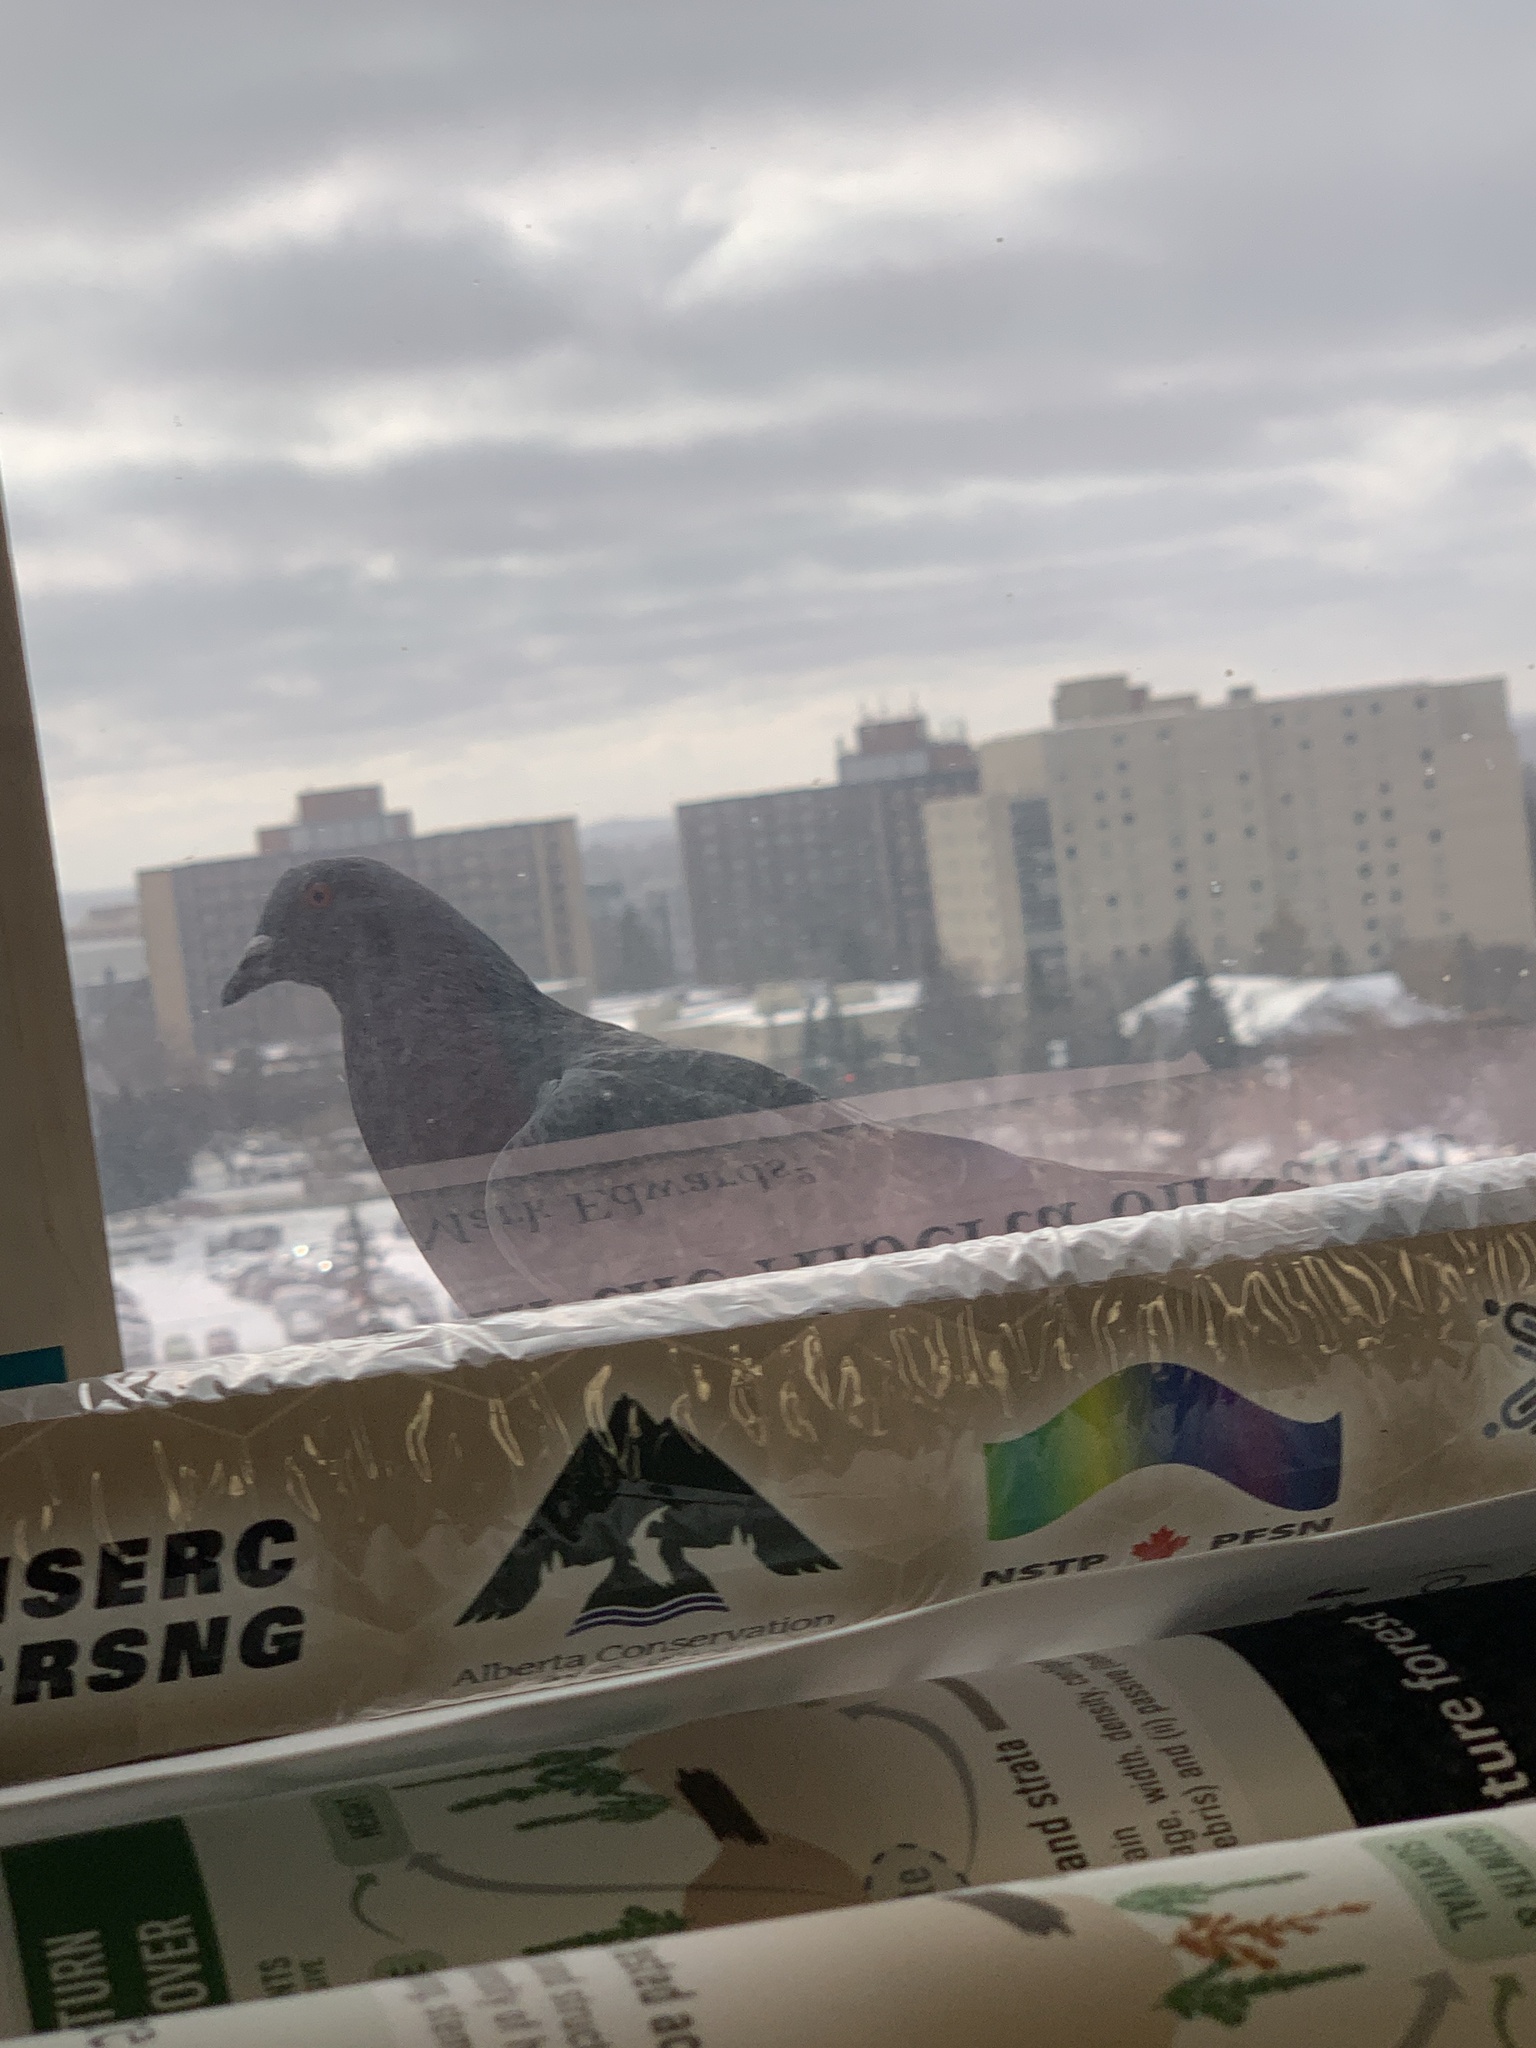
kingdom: Animalia
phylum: Chordata
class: Aves
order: Columbiformes
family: Columbidae
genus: Columba
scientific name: Columba livia
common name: Rock pigeon
